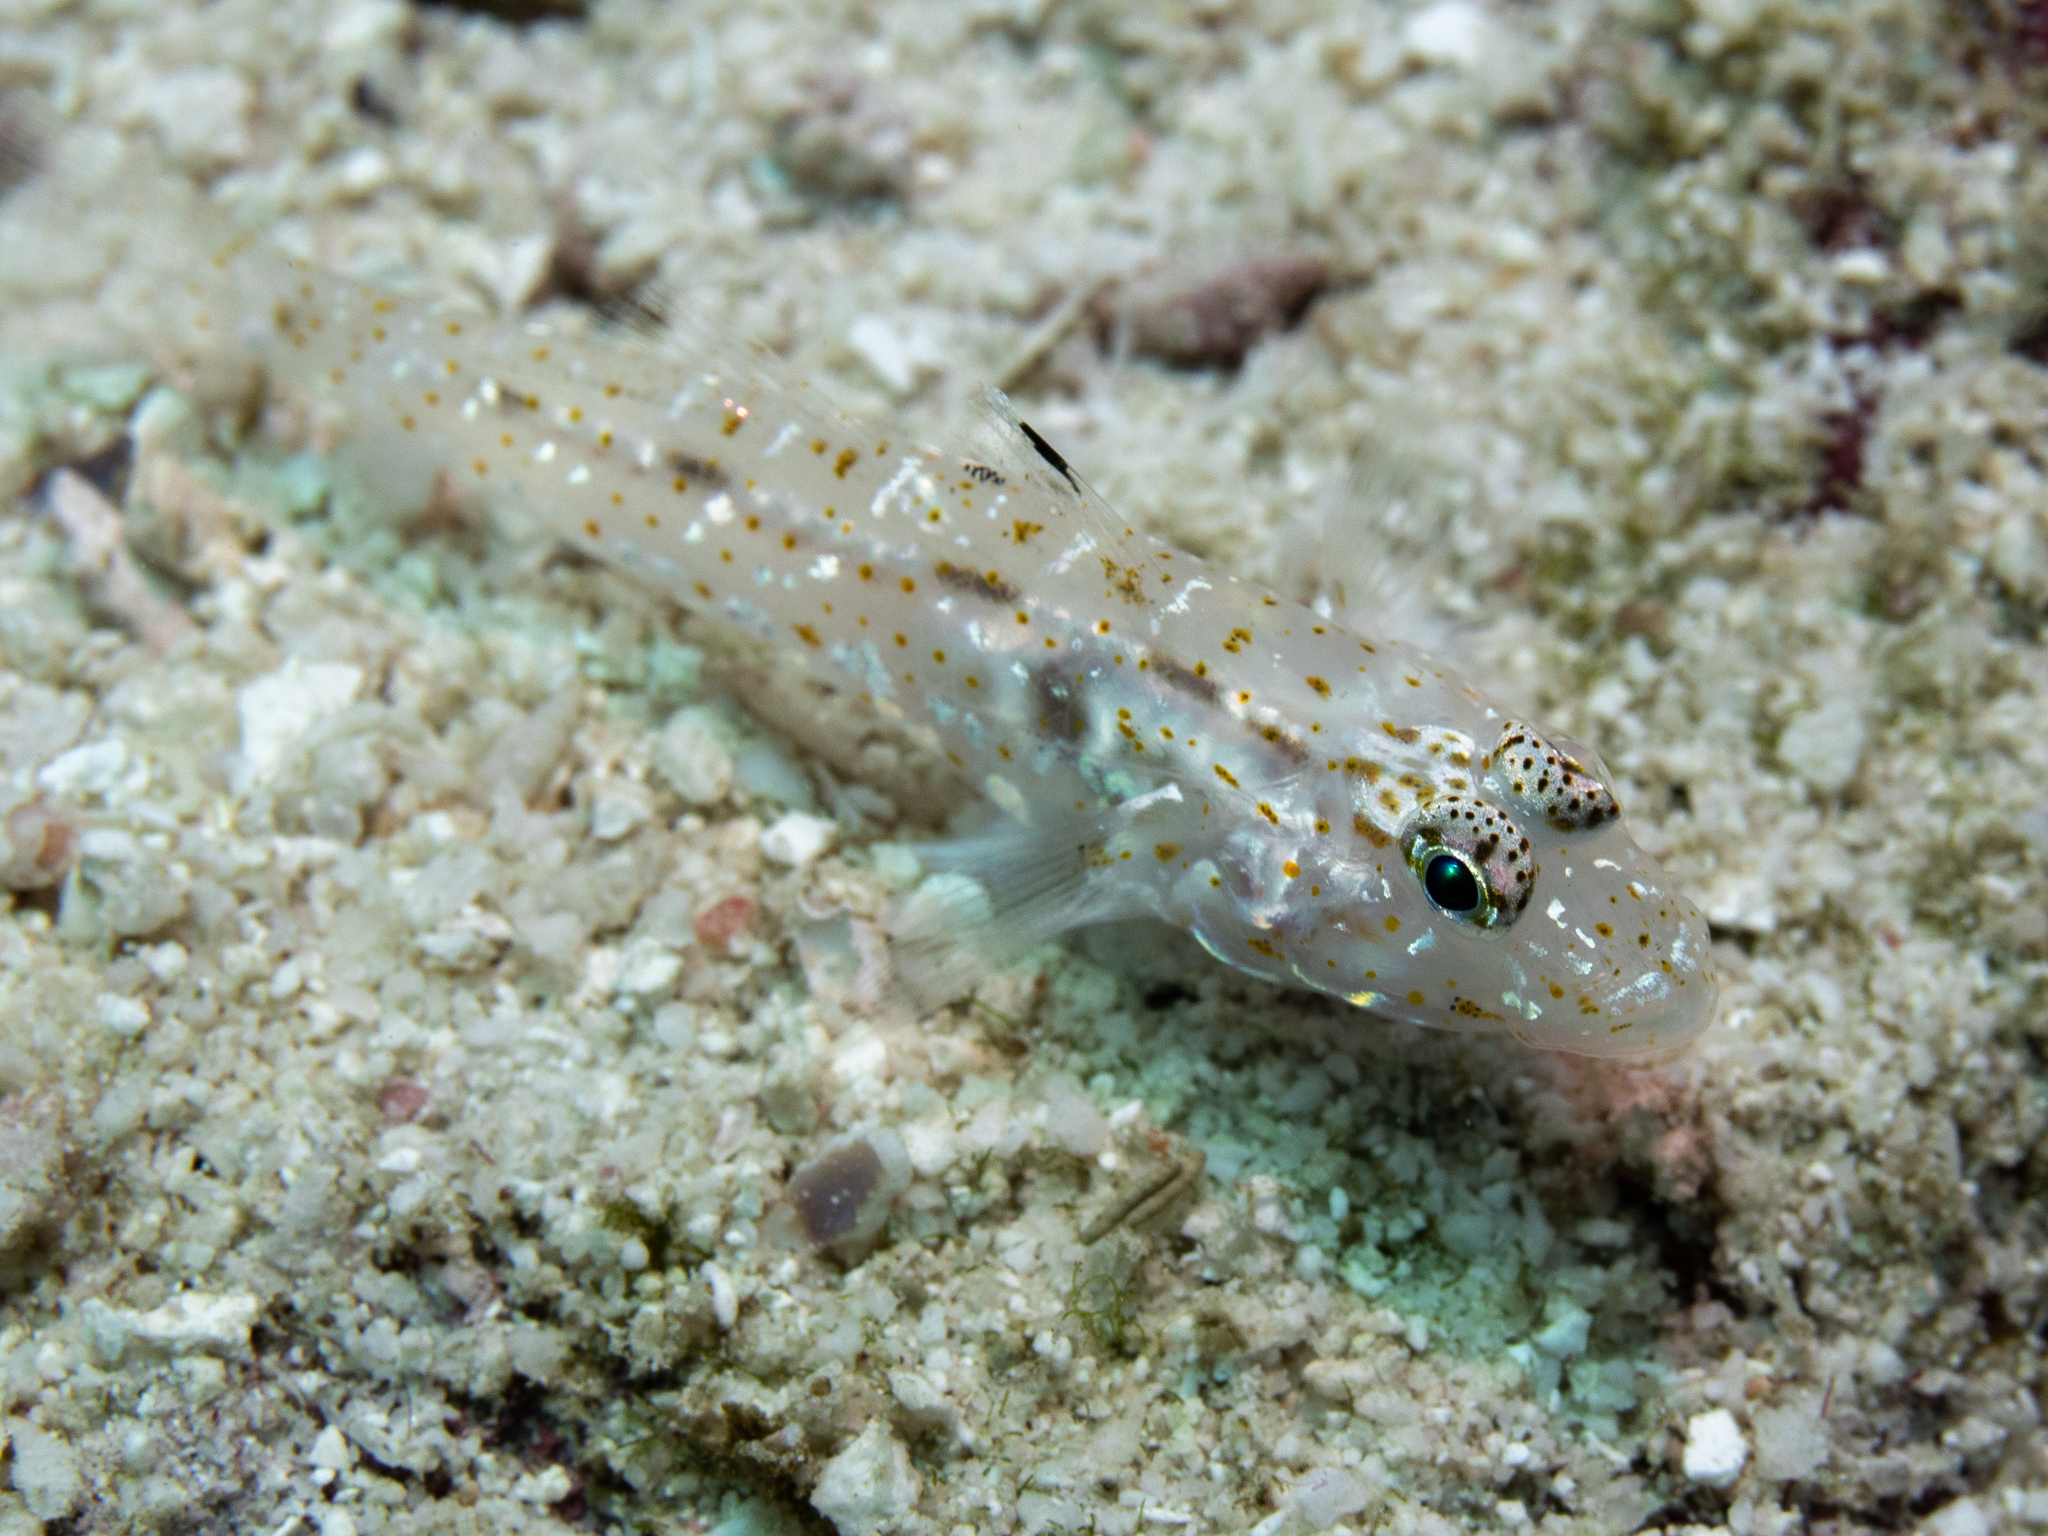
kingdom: Animalia
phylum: Chordata
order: Perciformes
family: Gobiidae
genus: Fusigobius
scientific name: Fusigobius duospilus
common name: Twospot goby
